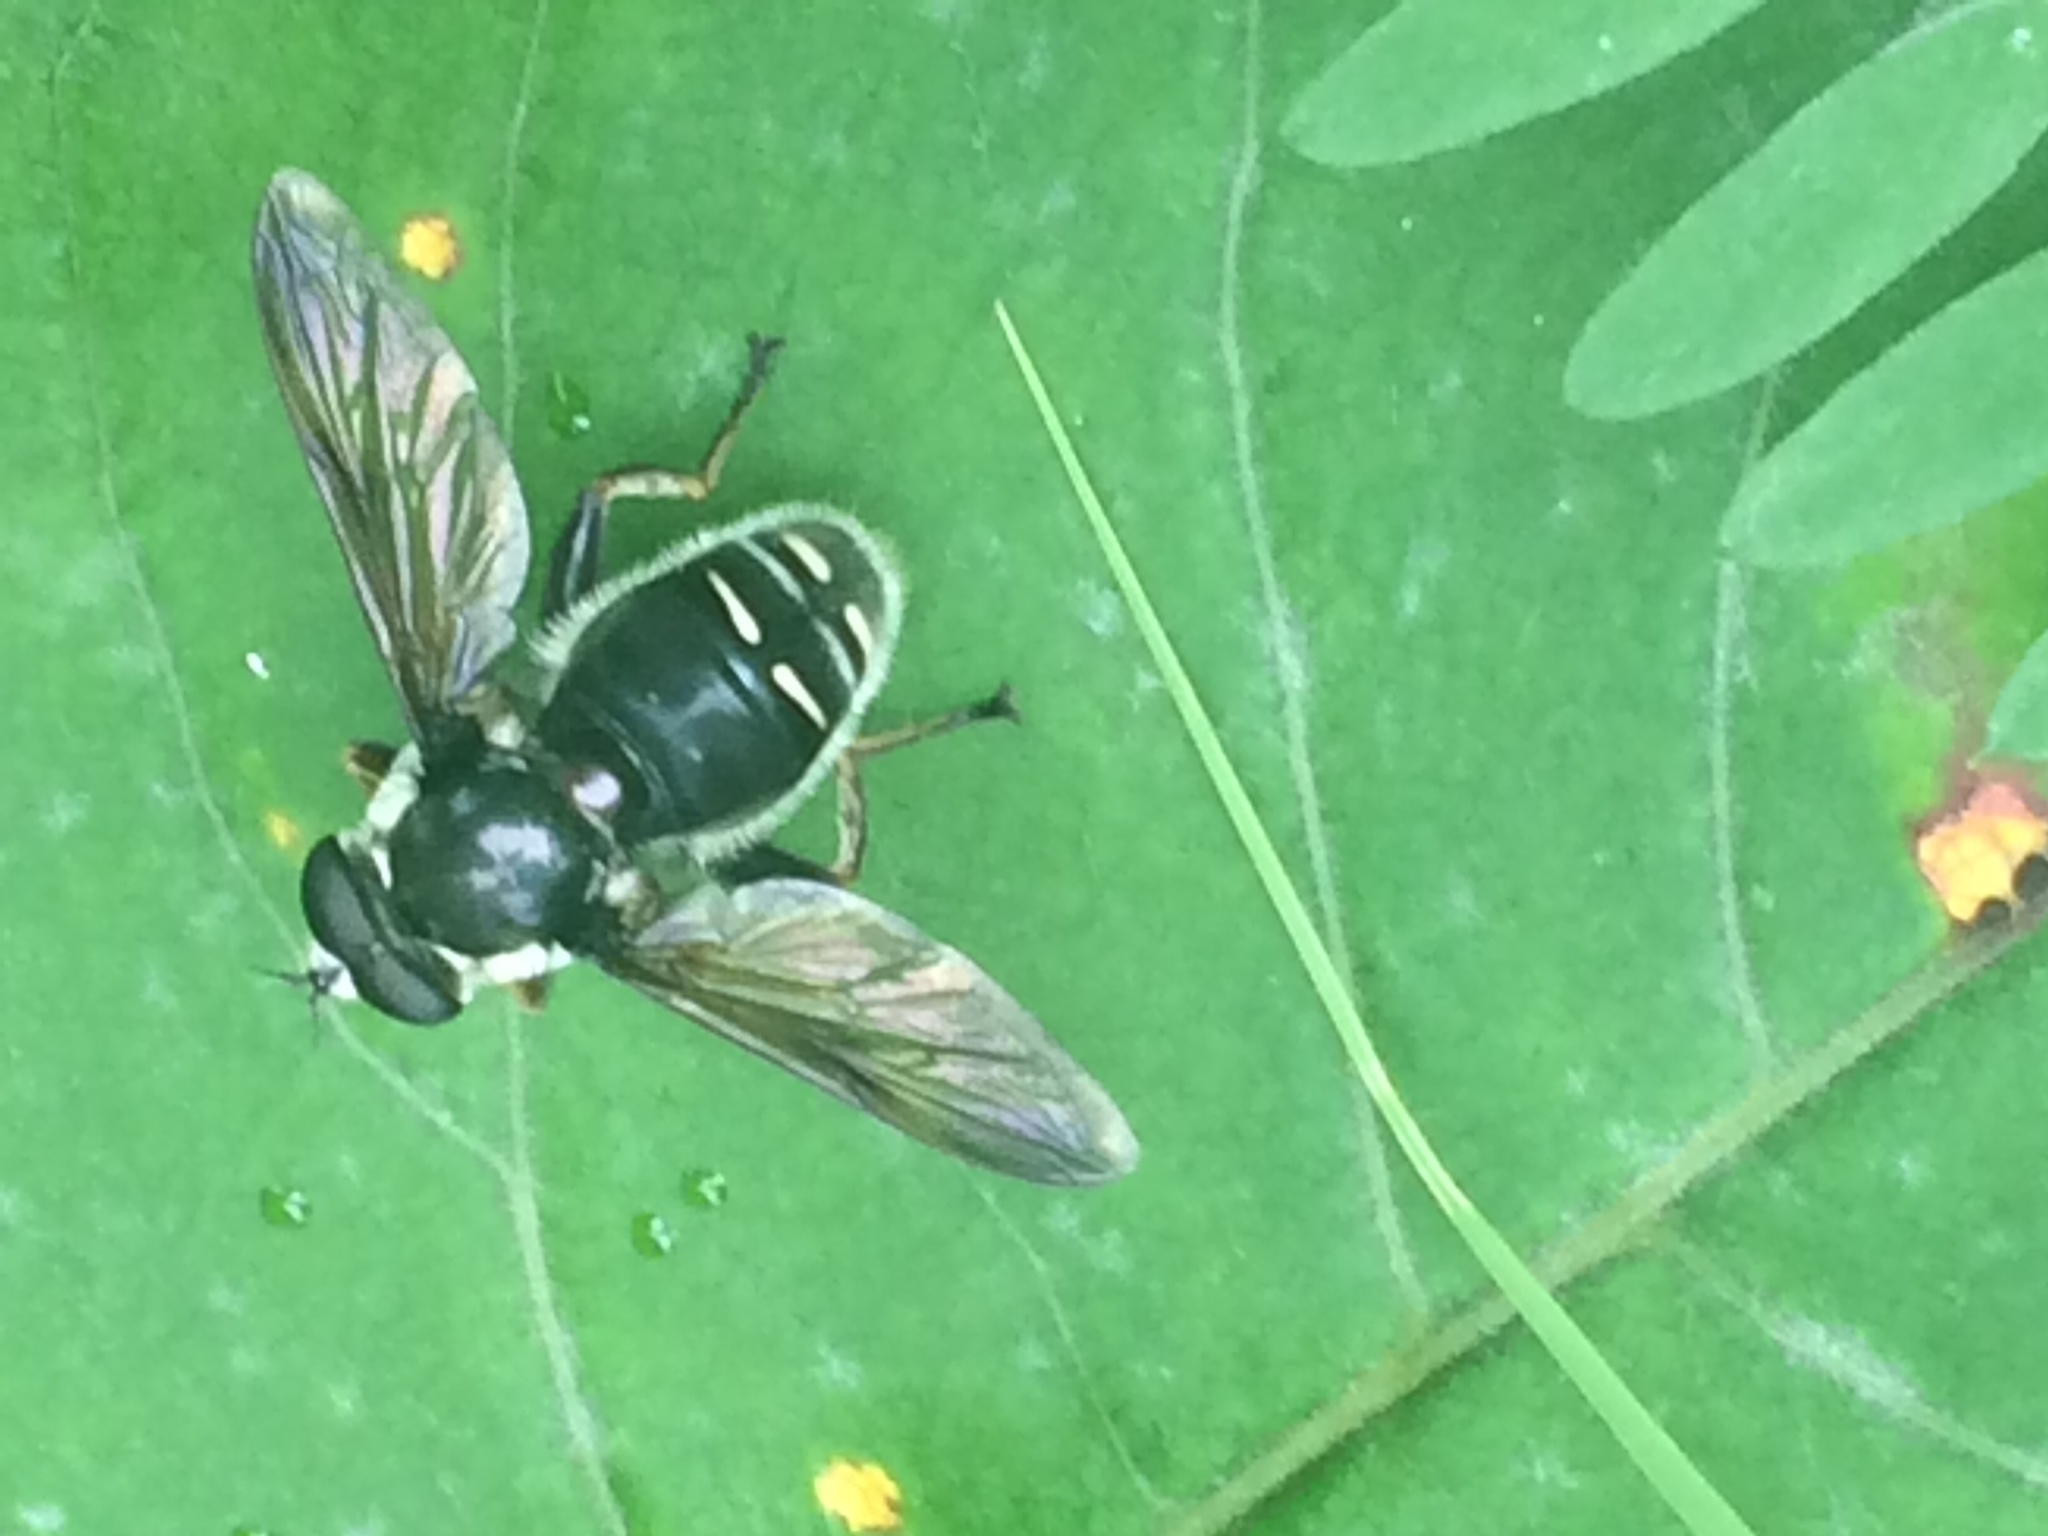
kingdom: Animalia
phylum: Arthropoda
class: Insecta
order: Diptera
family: Syrphidae
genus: Sericomyia
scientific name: Sericomyia militaris
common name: Narrow-banded pond fly
